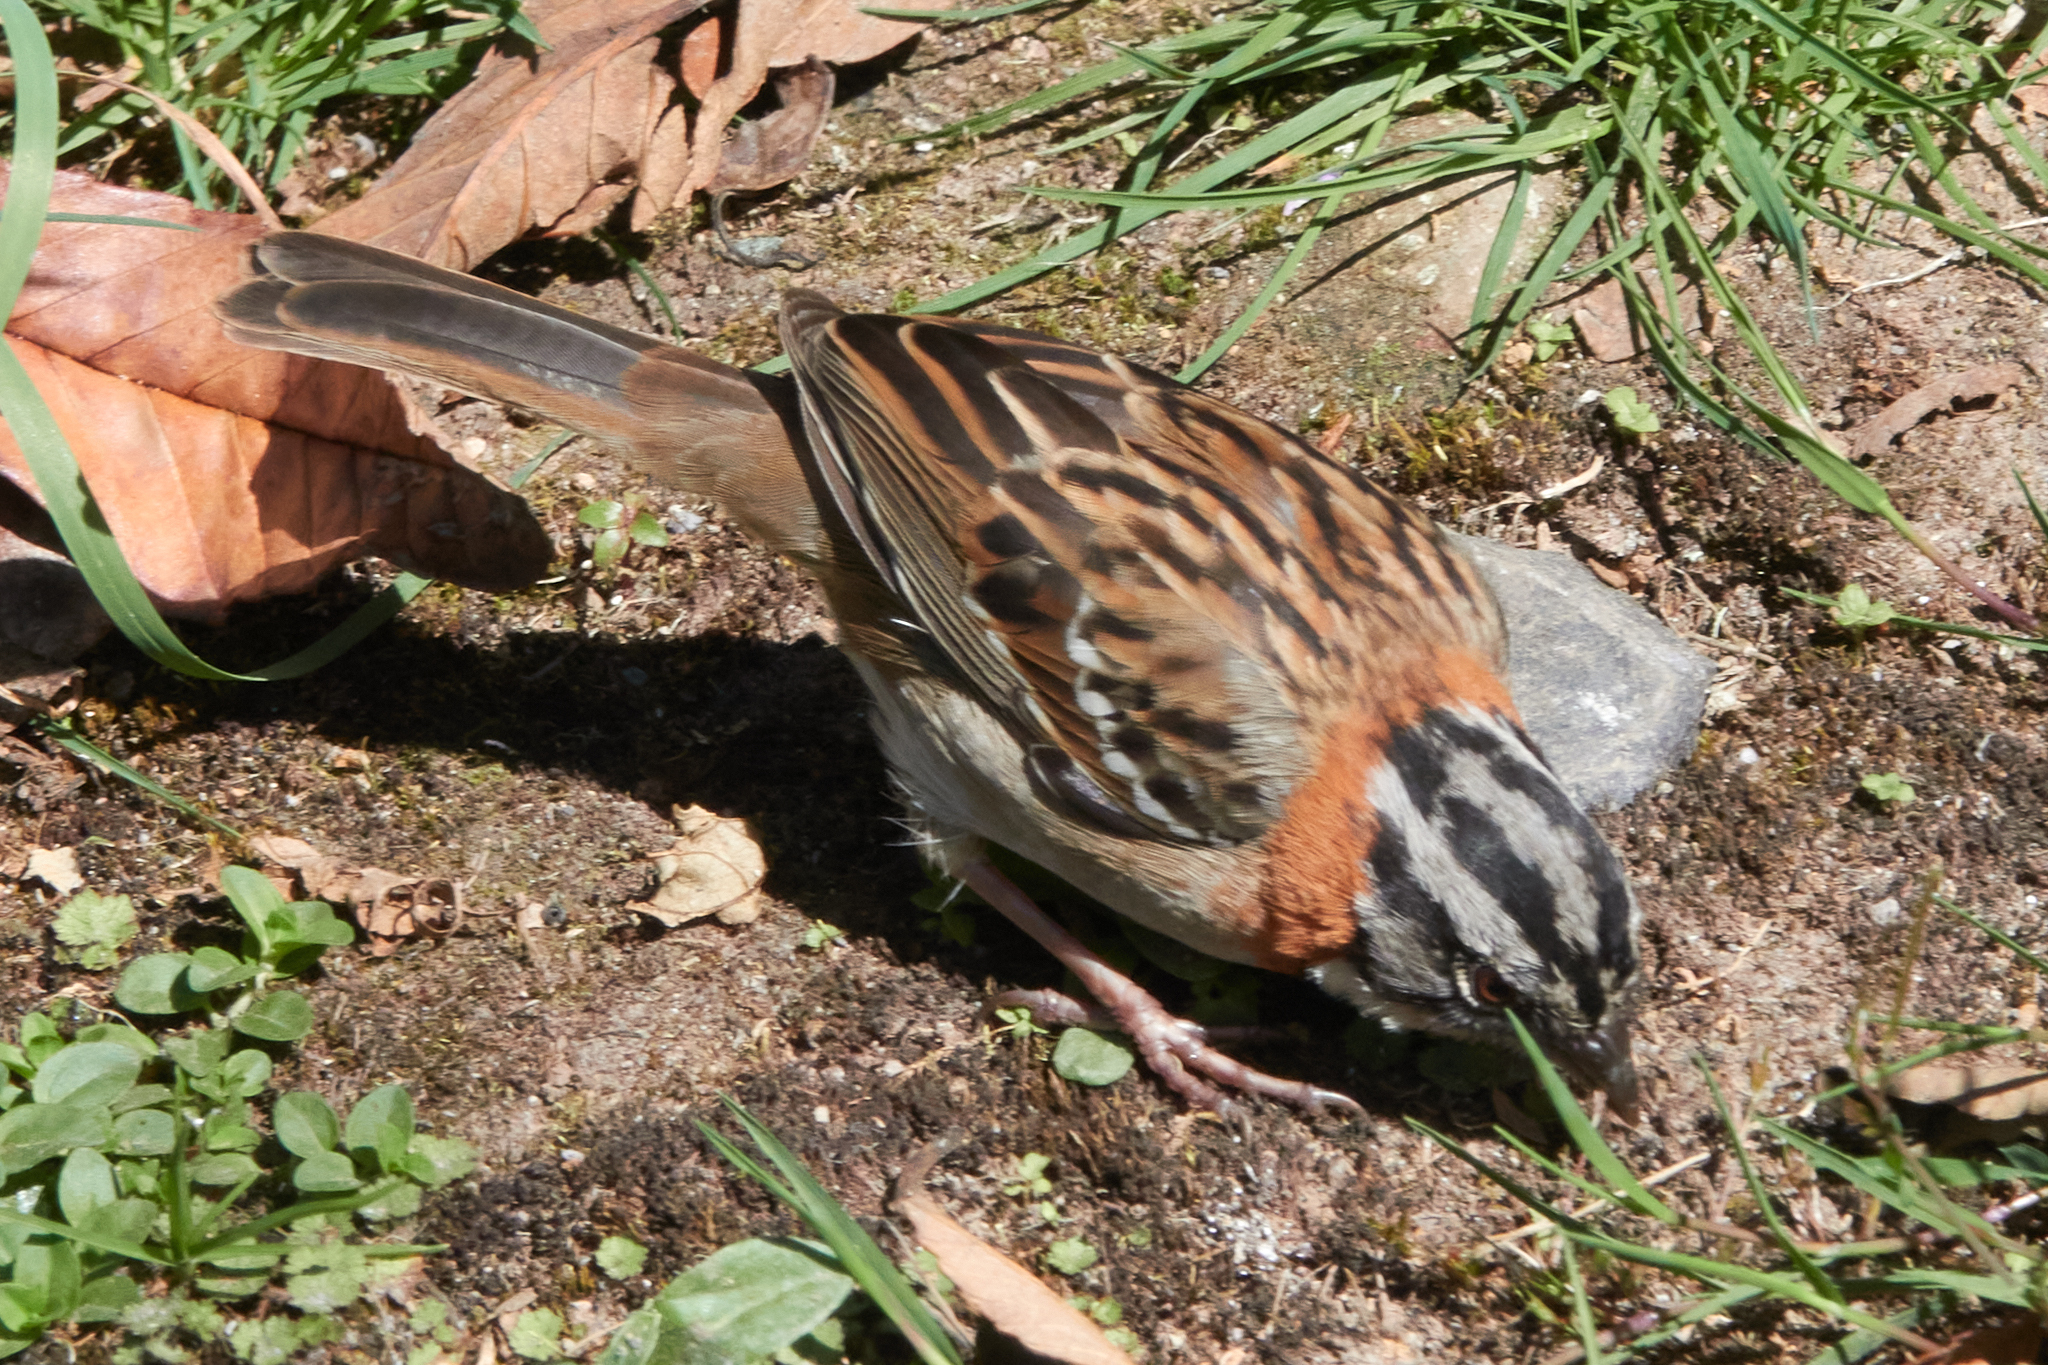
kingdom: Animalia
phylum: Chordata
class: Aves
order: Passeriformes
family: Passerellidae
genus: Zonotrichia
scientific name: Zonotrichia capensis
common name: Rufous-collared sparrow
